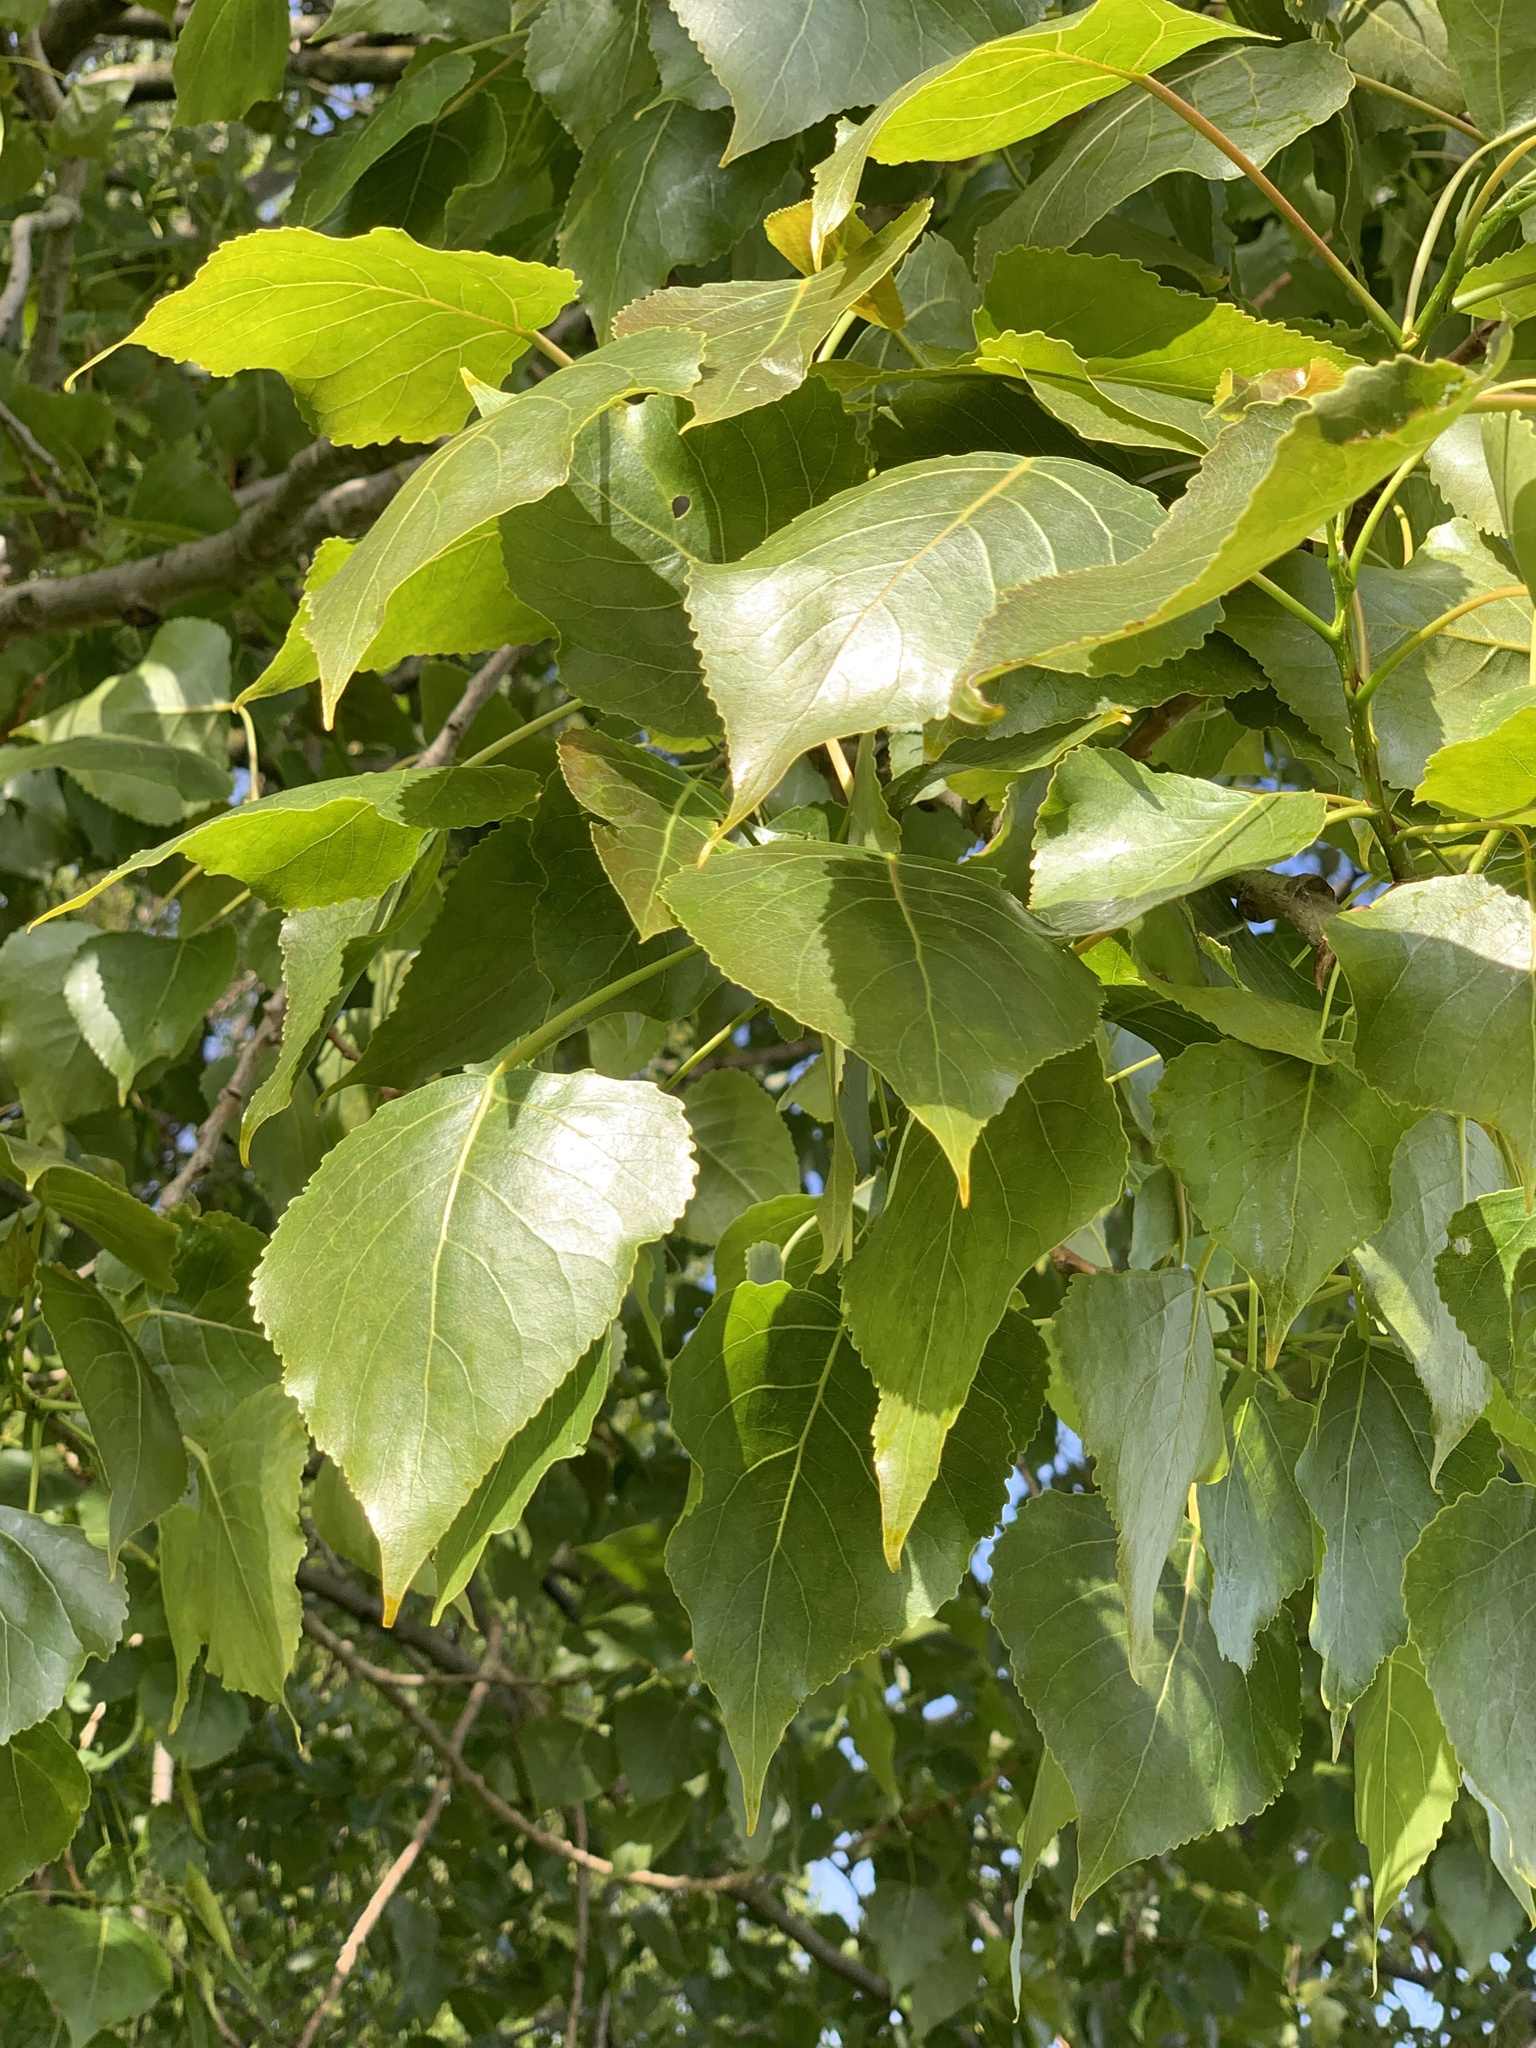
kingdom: Plantae
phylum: Tracheophyta
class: Magnoliopsida
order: Malpighiales
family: Salicaceae
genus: Populus
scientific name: Populus canadensis
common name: Carolina poplar
